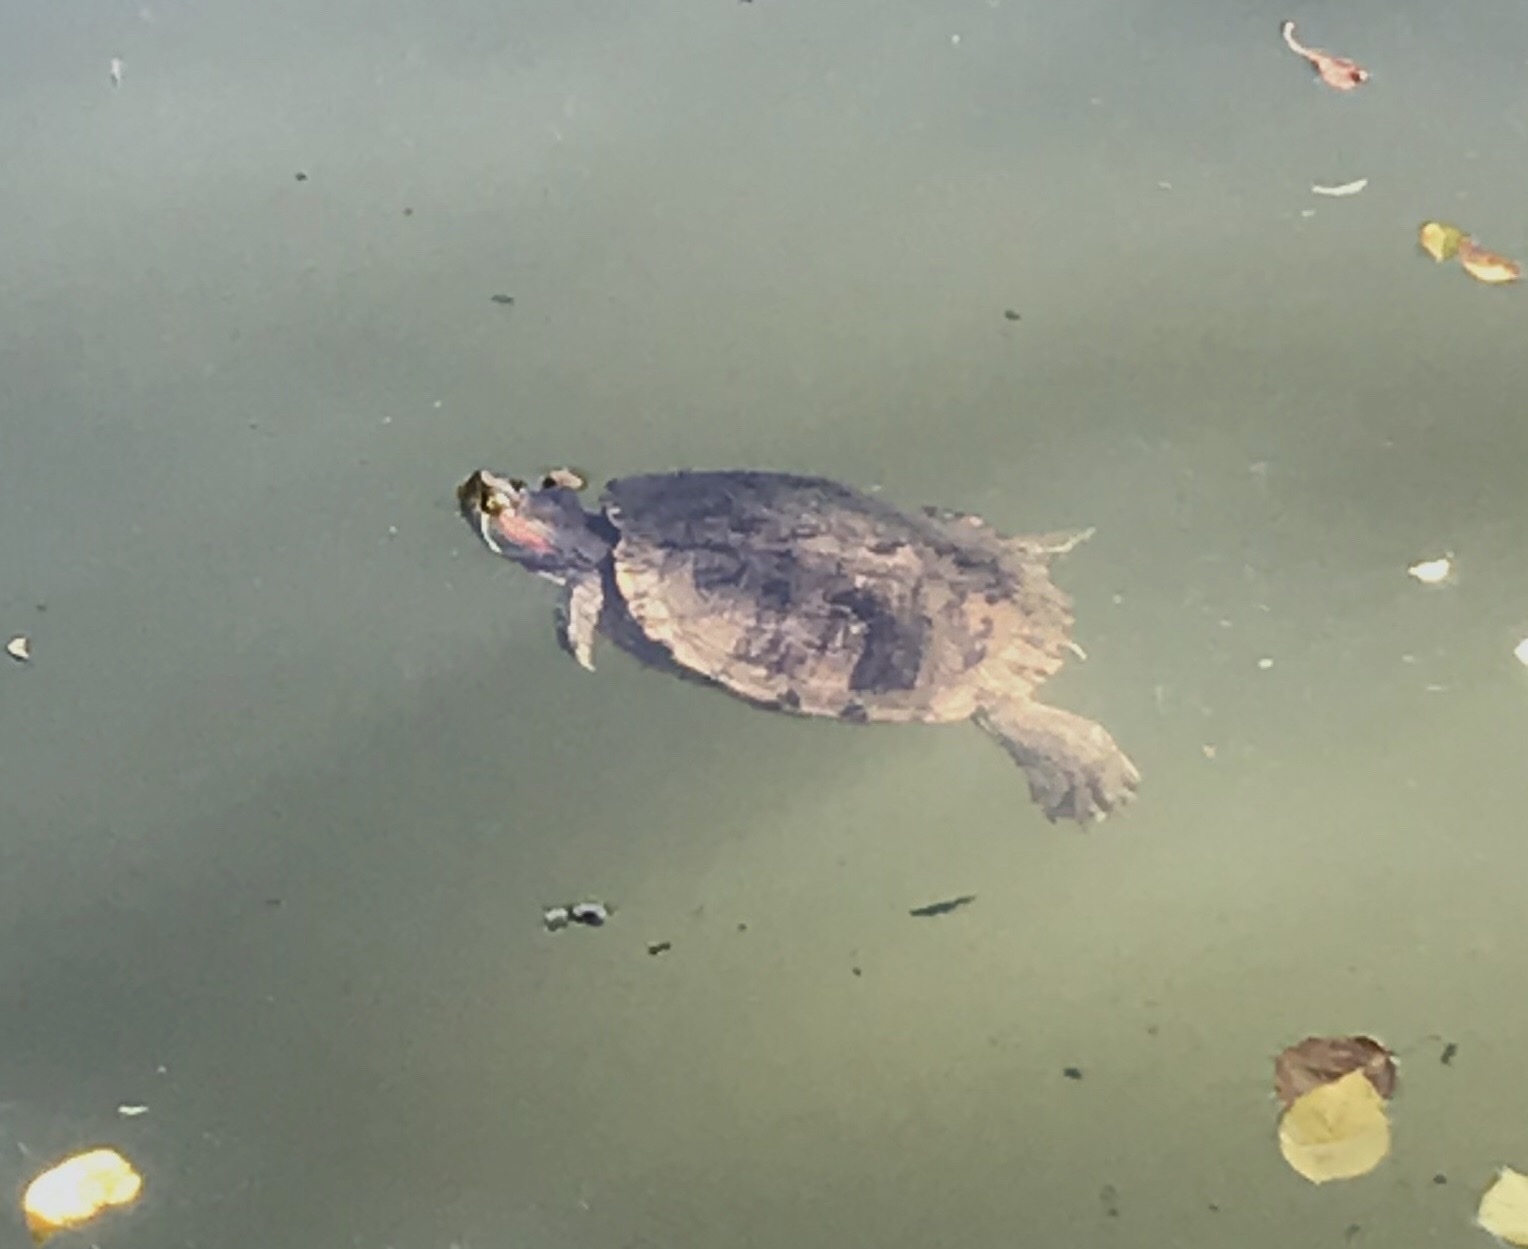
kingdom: Animalia
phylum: Chordata
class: Testudines
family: Emydidae
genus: Trachemys
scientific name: Trachemys scripta
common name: Slider
